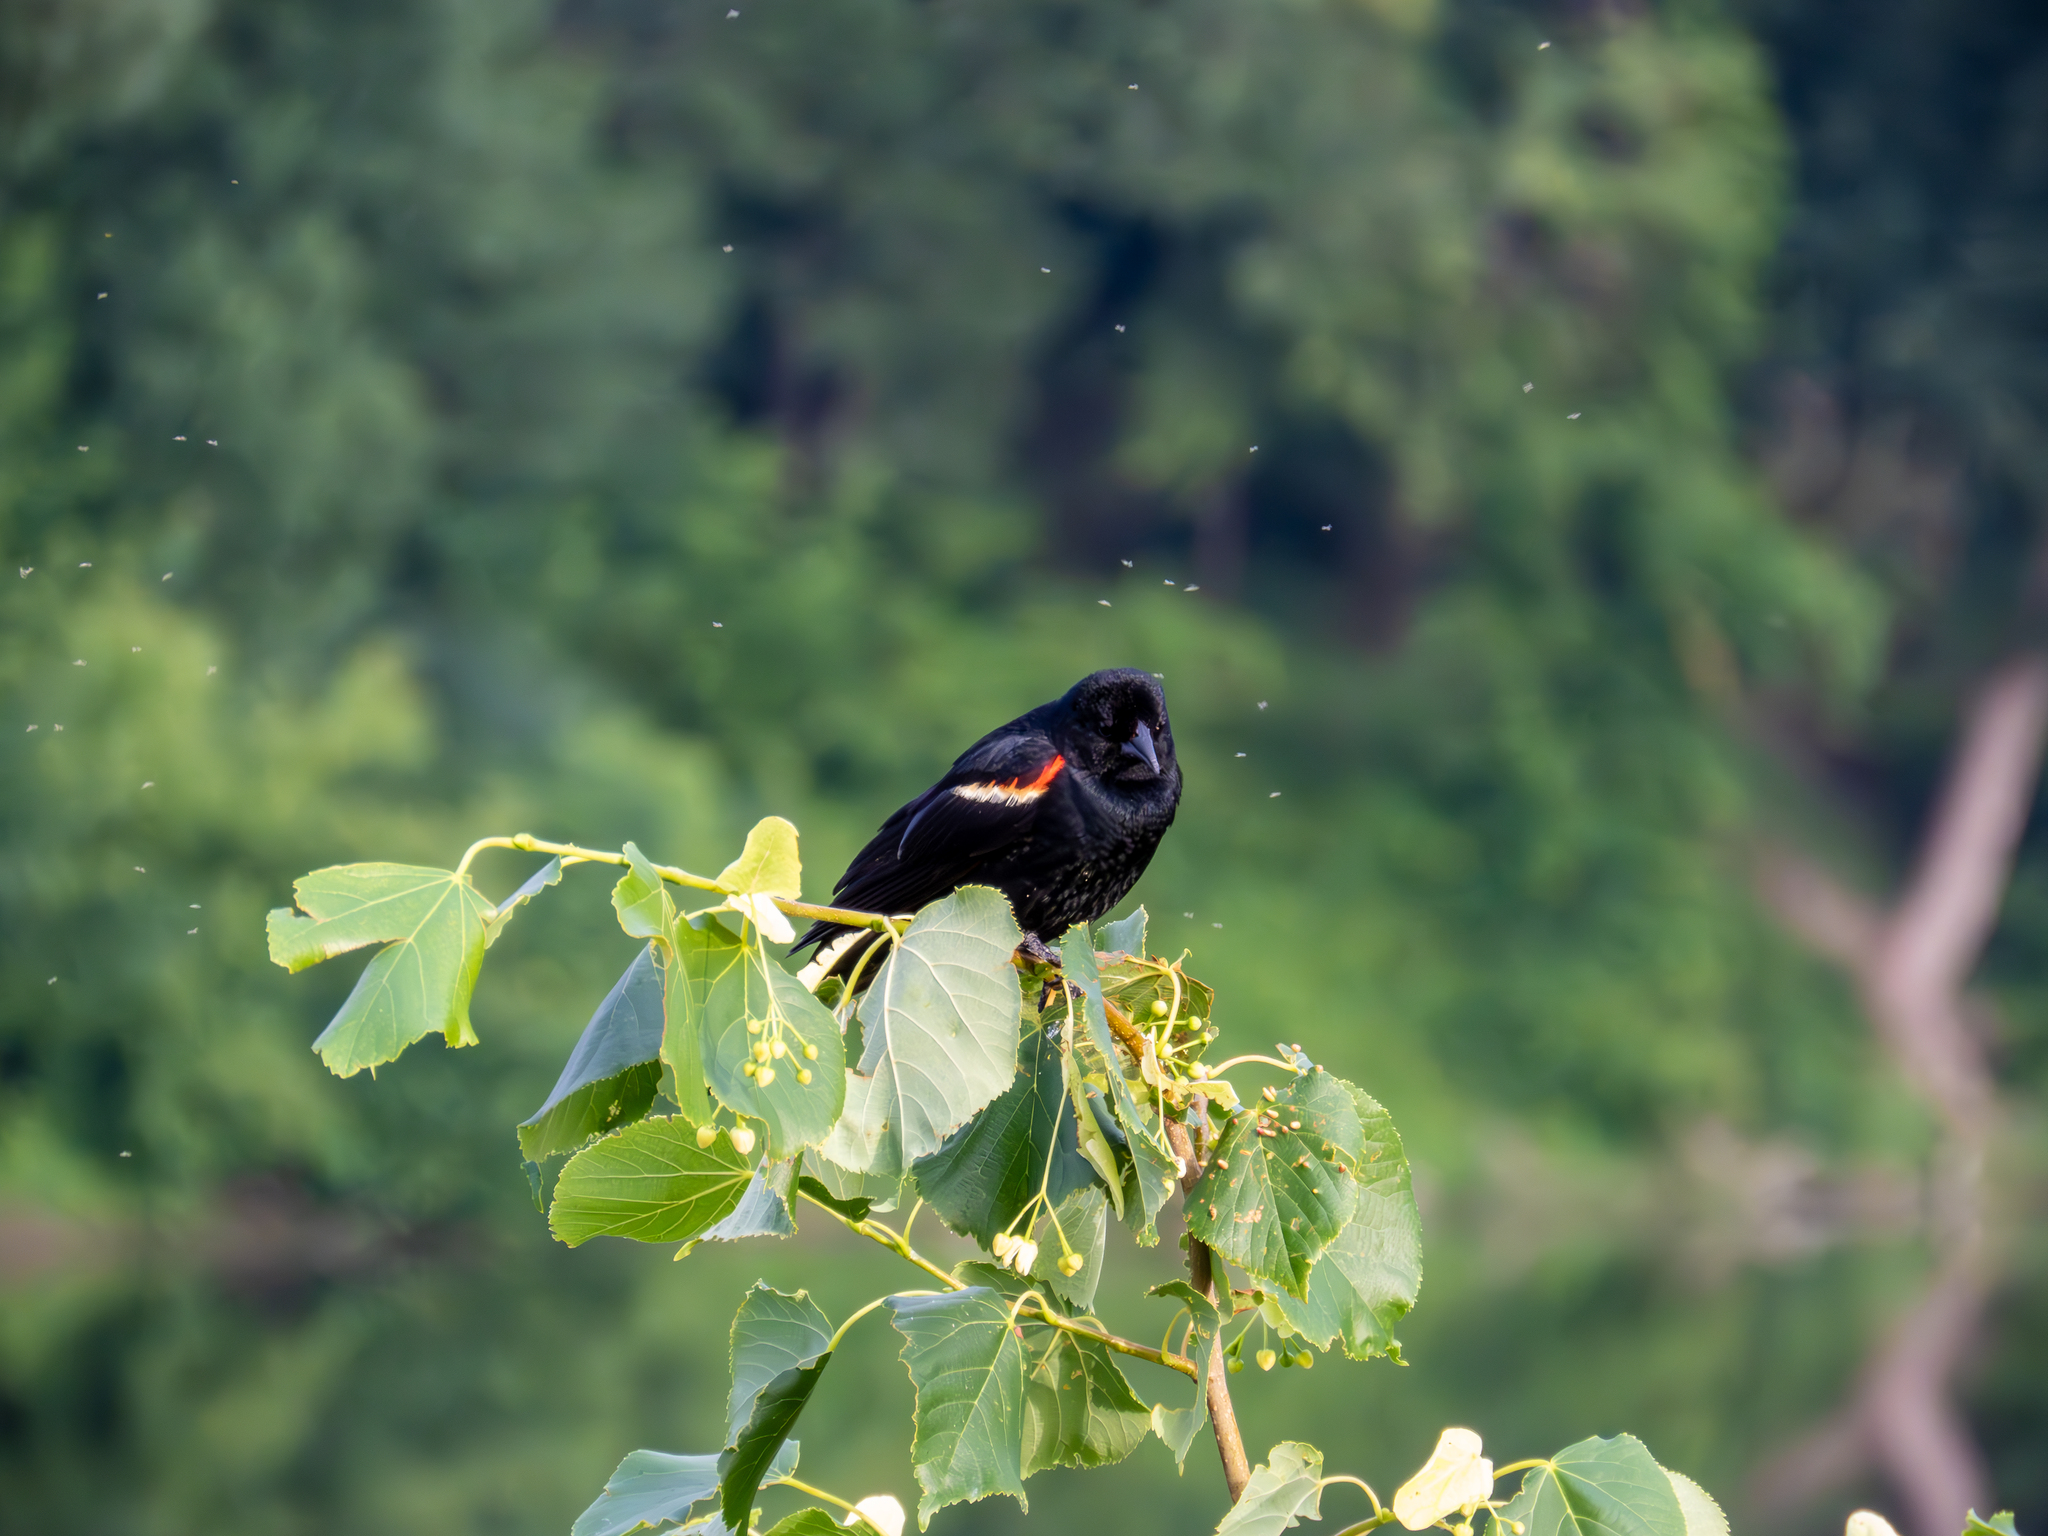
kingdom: Animalia
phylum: Chordata
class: Aves
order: Passeriformes
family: Icteridae
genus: Agelaius
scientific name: Agelaius phoeniceus
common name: Red-winged blackbird
